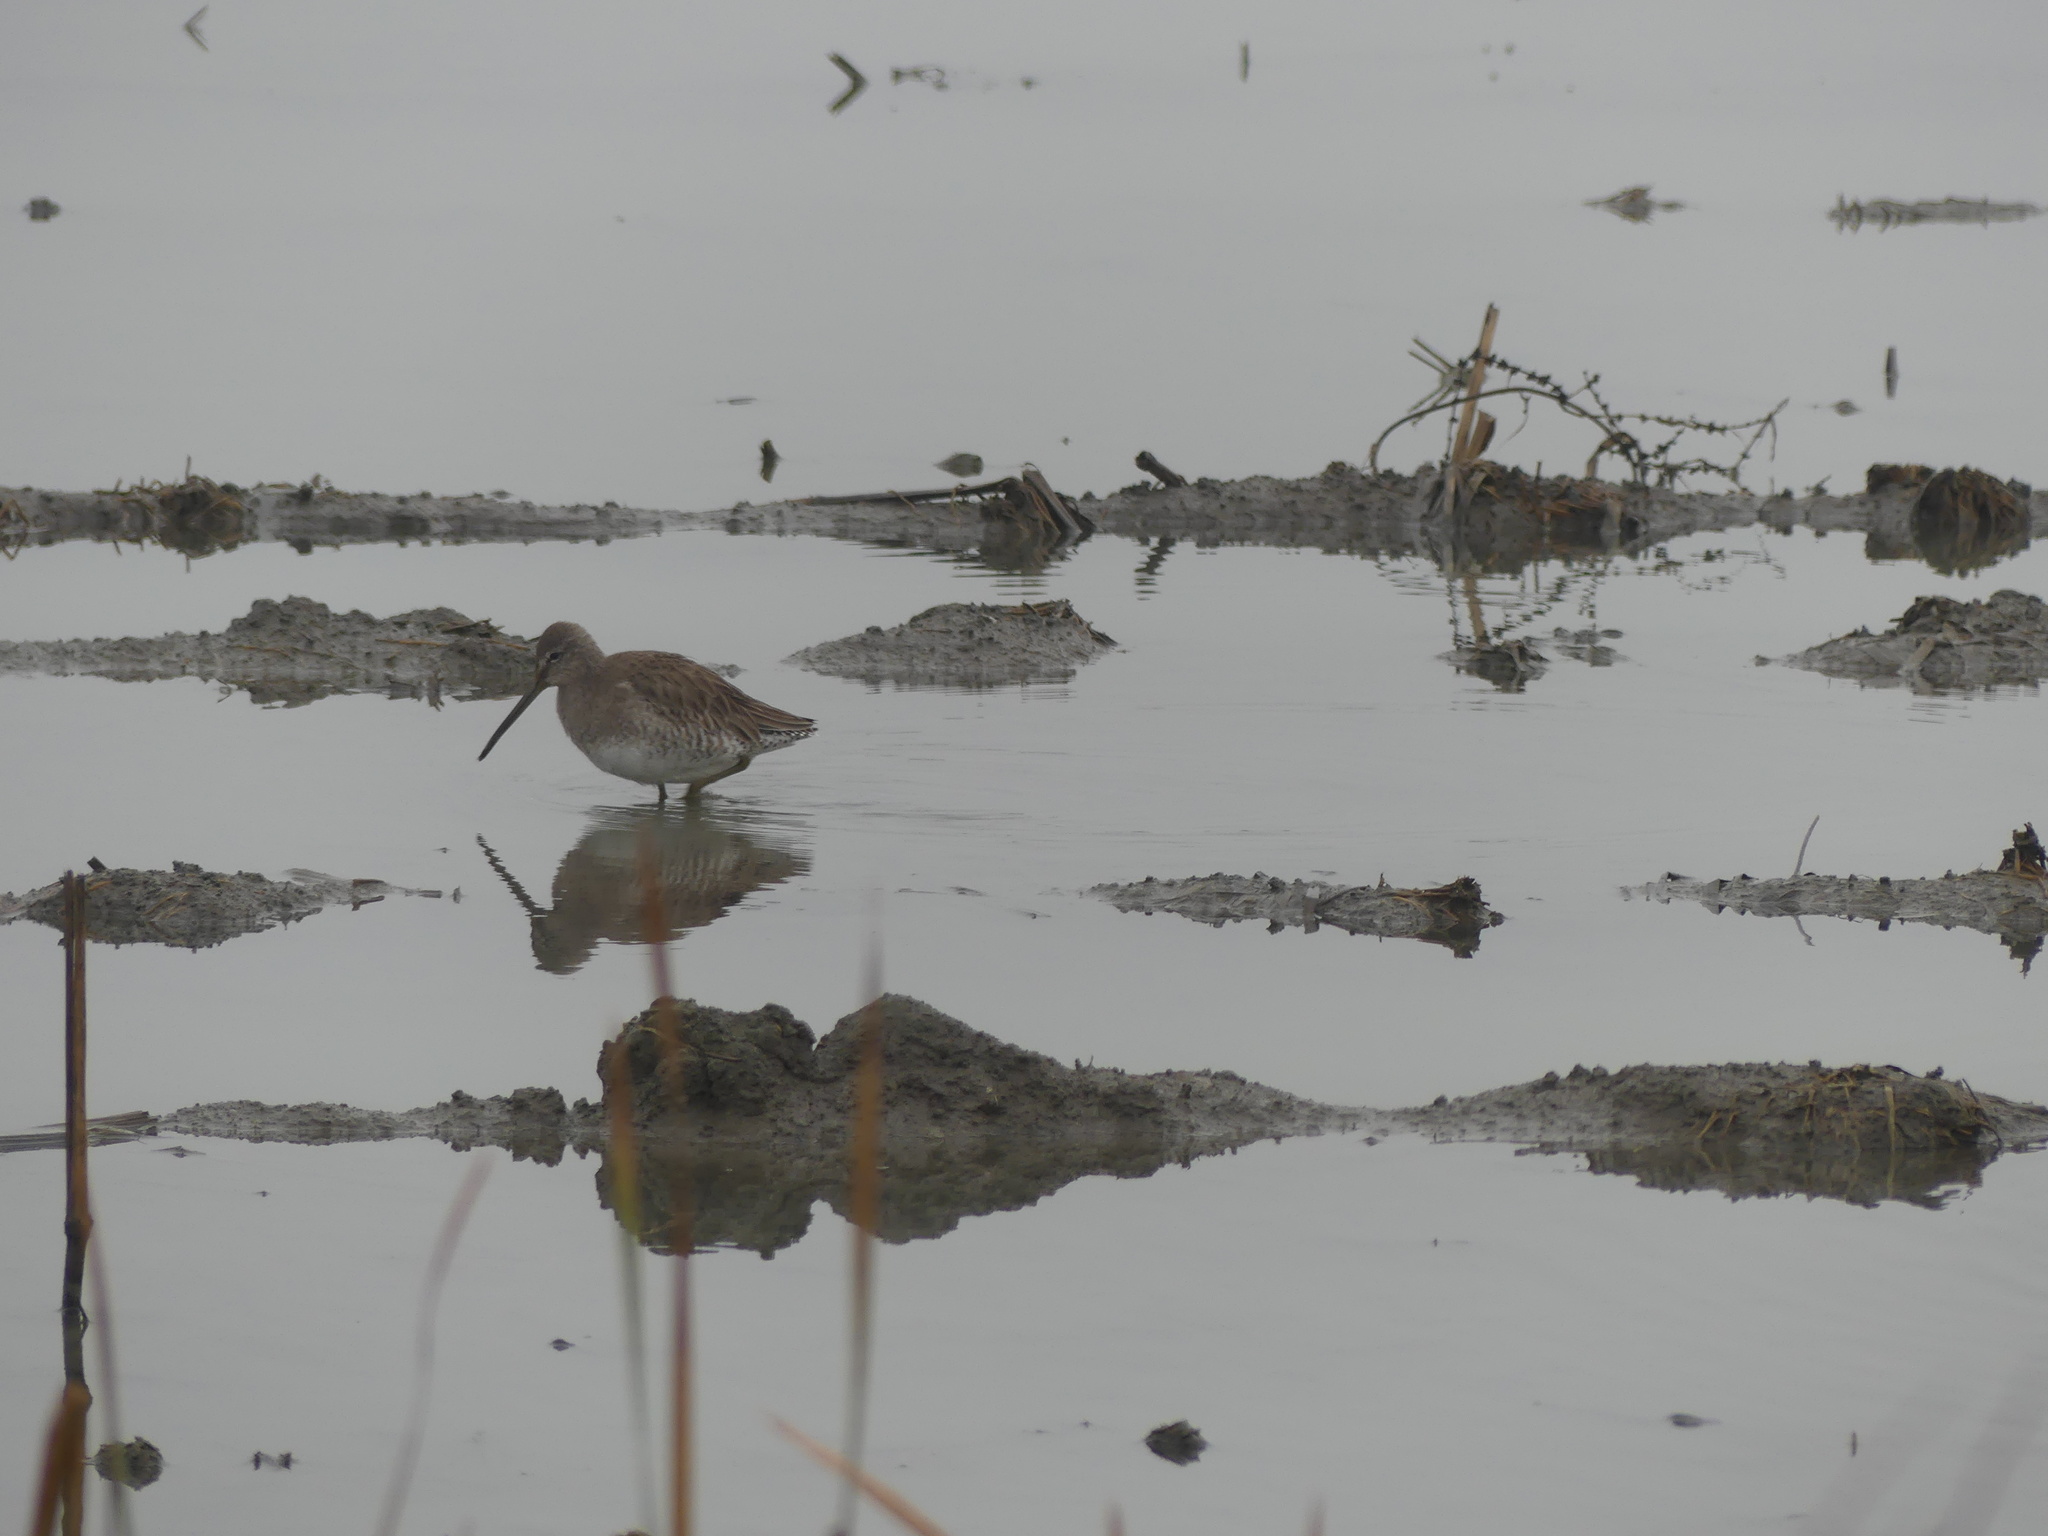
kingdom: Animalia
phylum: Chordata
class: Aves
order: Charadriiformes
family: Scolopacidae
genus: Limnodromus
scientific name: Limnodromus scolopaceus
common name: Long-billed dowitcher
